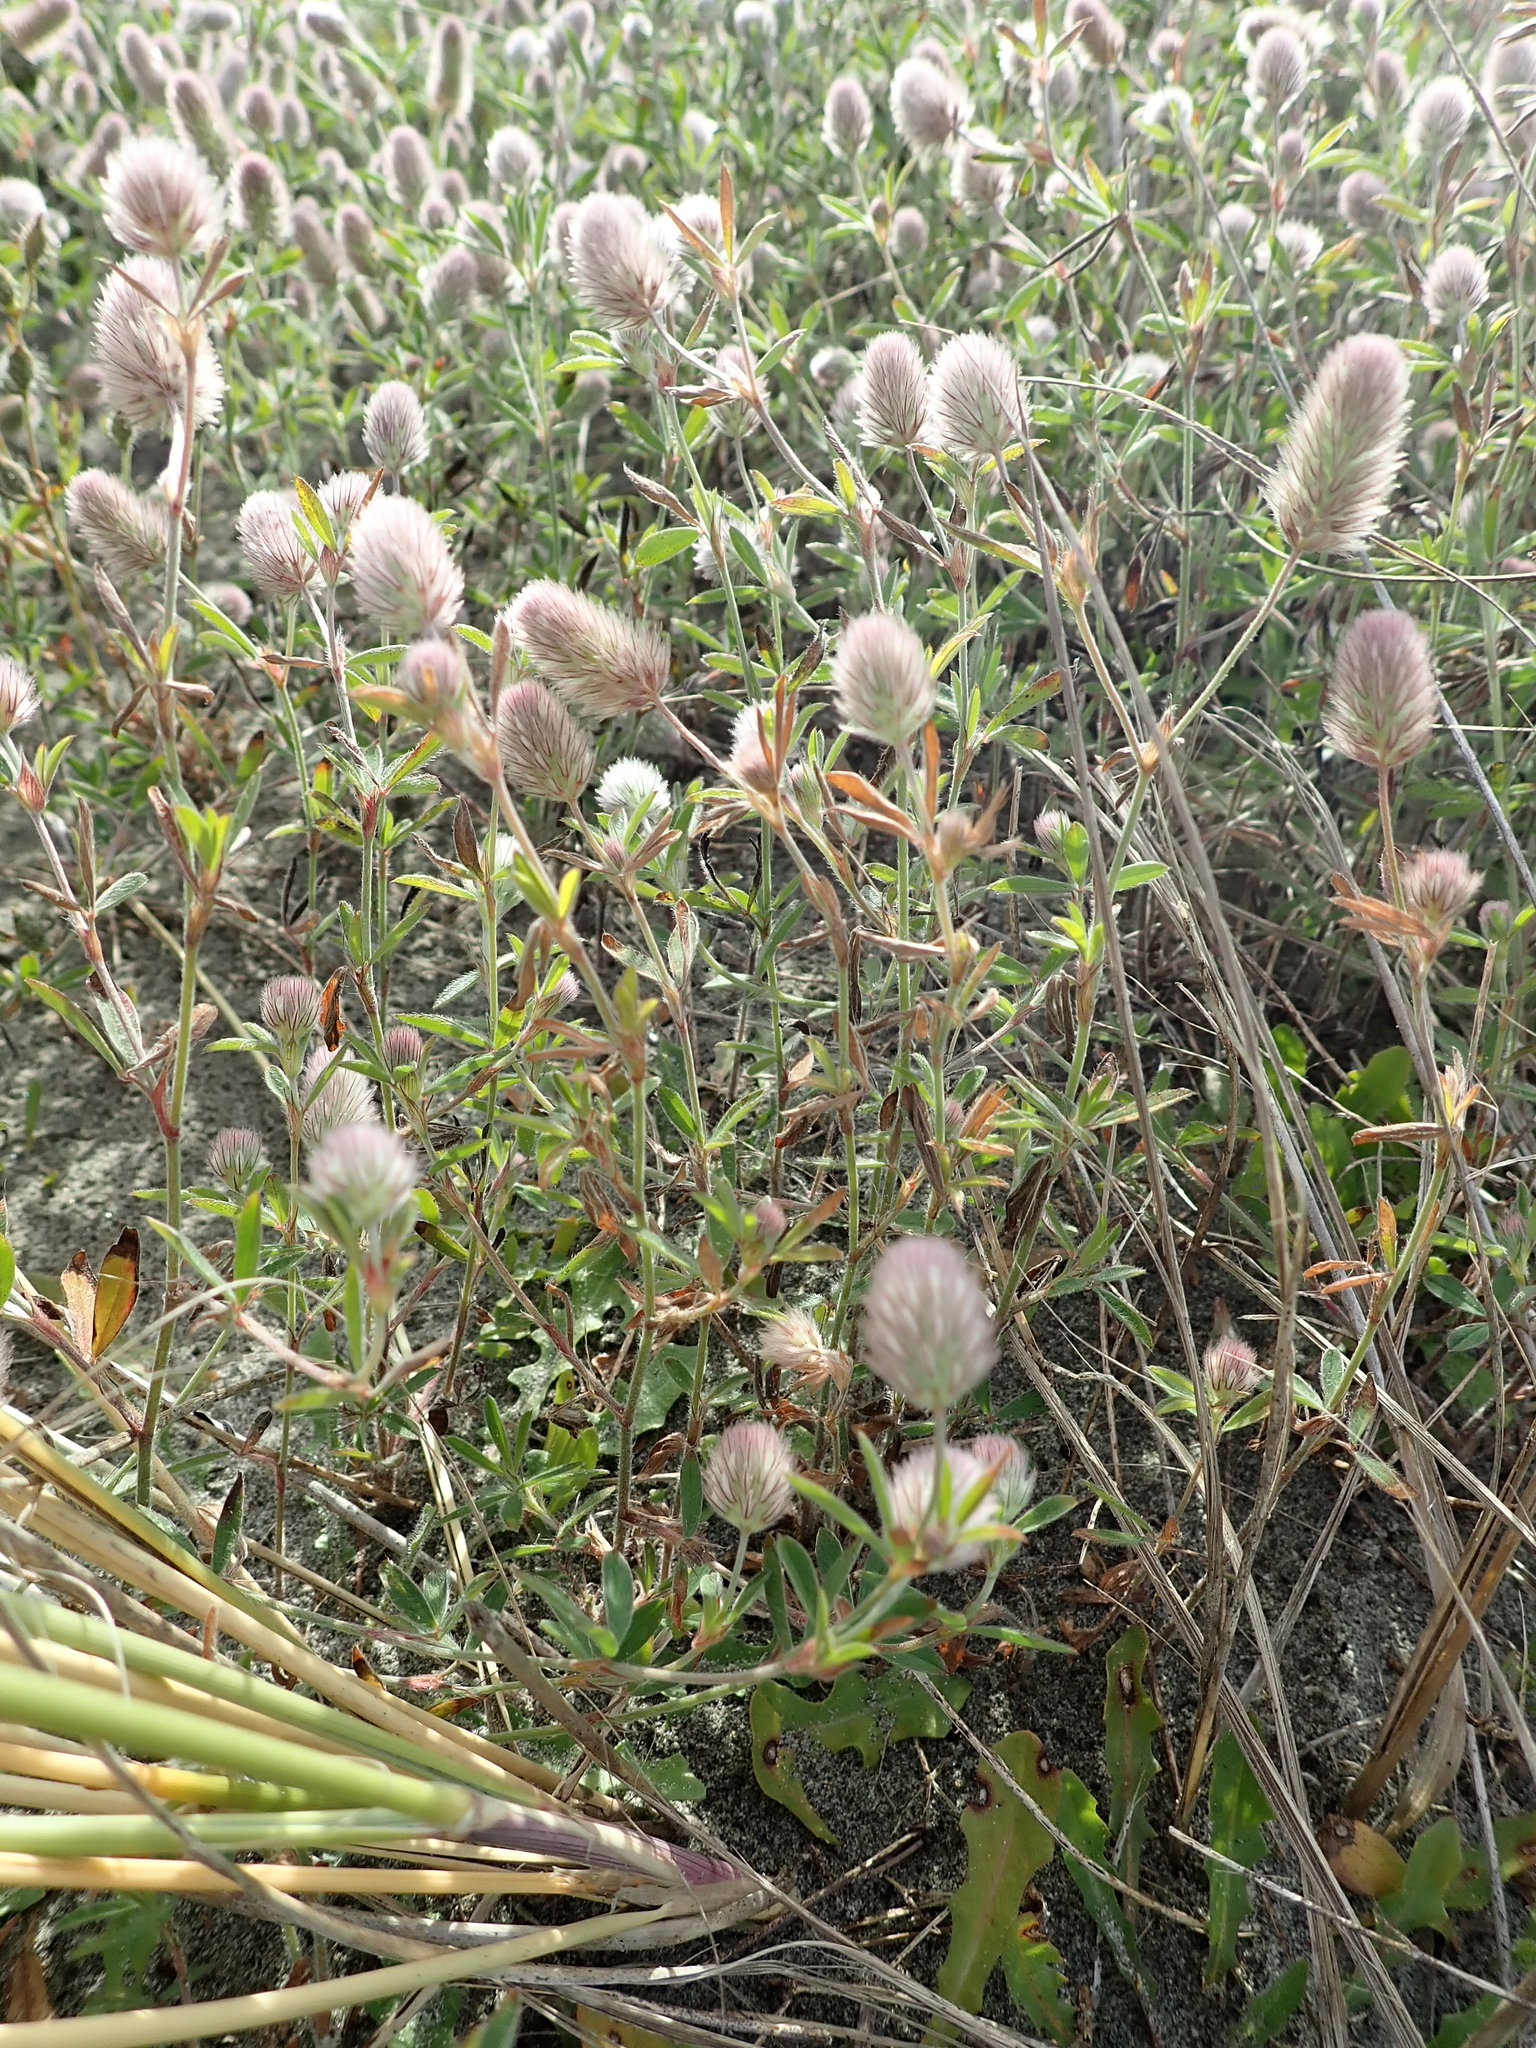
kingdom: Plantae
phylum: Tracheophyta
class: Magnoliopsida
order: Fabales
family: Fabaceae
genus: Trifolium
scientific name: Trifolium arvense
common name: Hare's-foot clover
